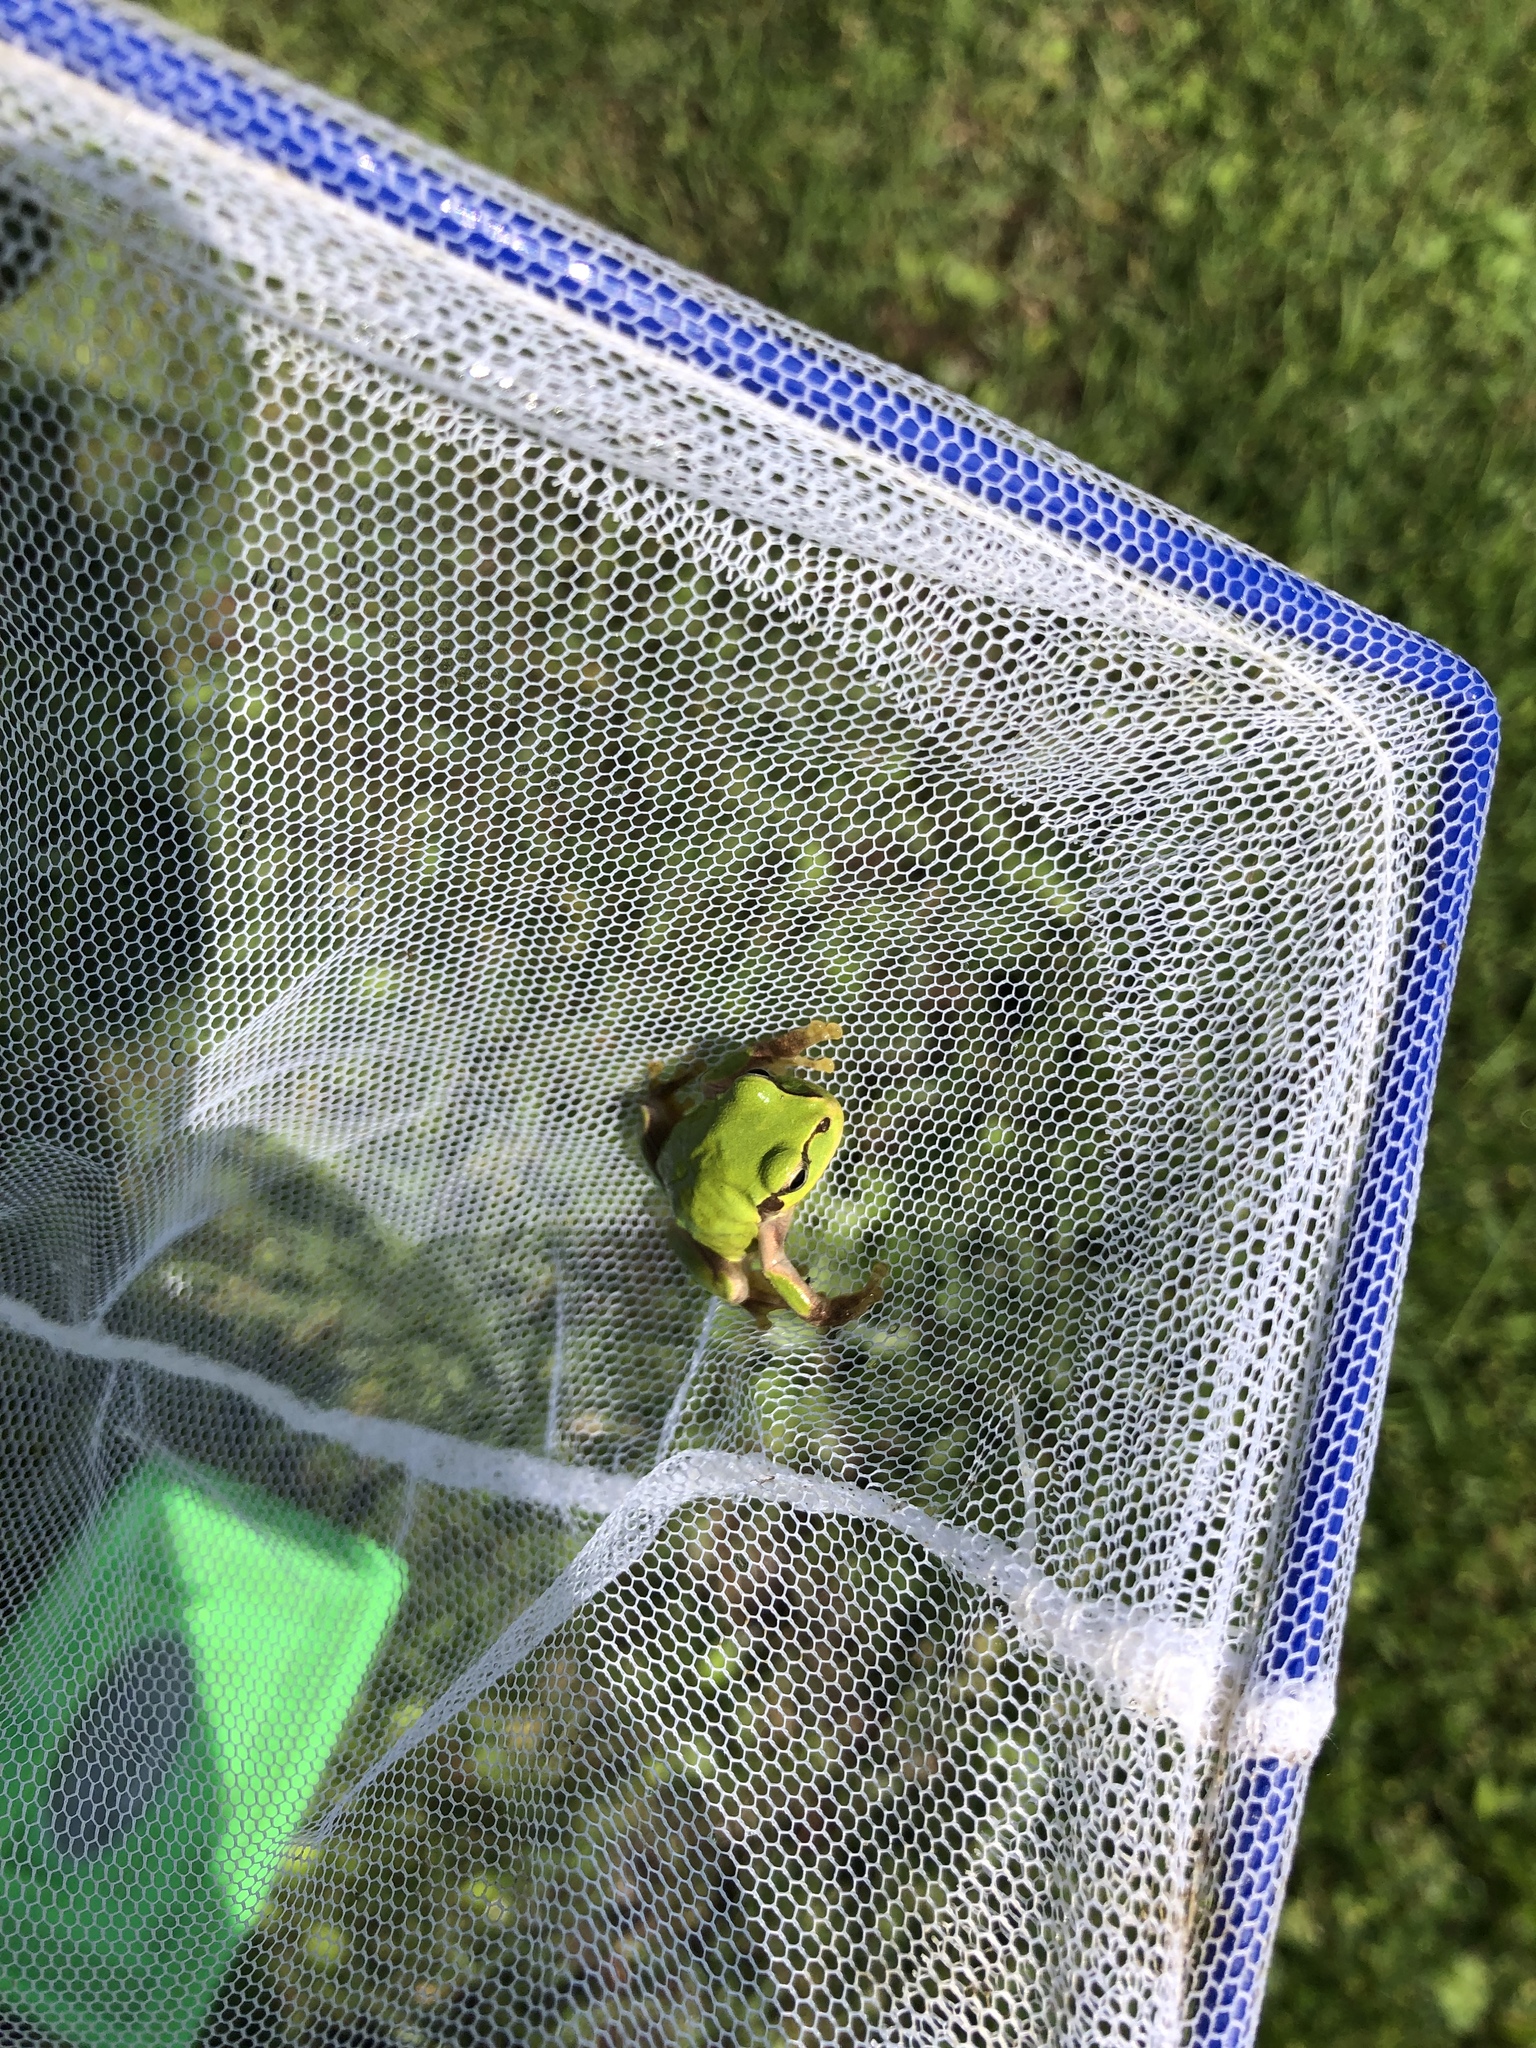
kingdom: Animalia
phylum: Chordata
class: Amphibia
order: Anura
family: Hylidae
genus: Dryophytes
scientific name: Dryophytes japonicus
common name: Japanese treefrog
